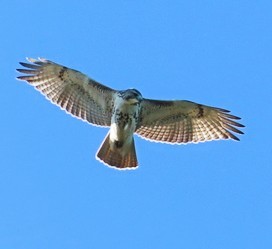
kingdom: Animalia
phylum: Chordata
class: Aves
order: Accipitriformes
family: Accipitridae
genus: Buteo
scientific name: Buteo jamaicensis
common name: Red-tailed hawk
